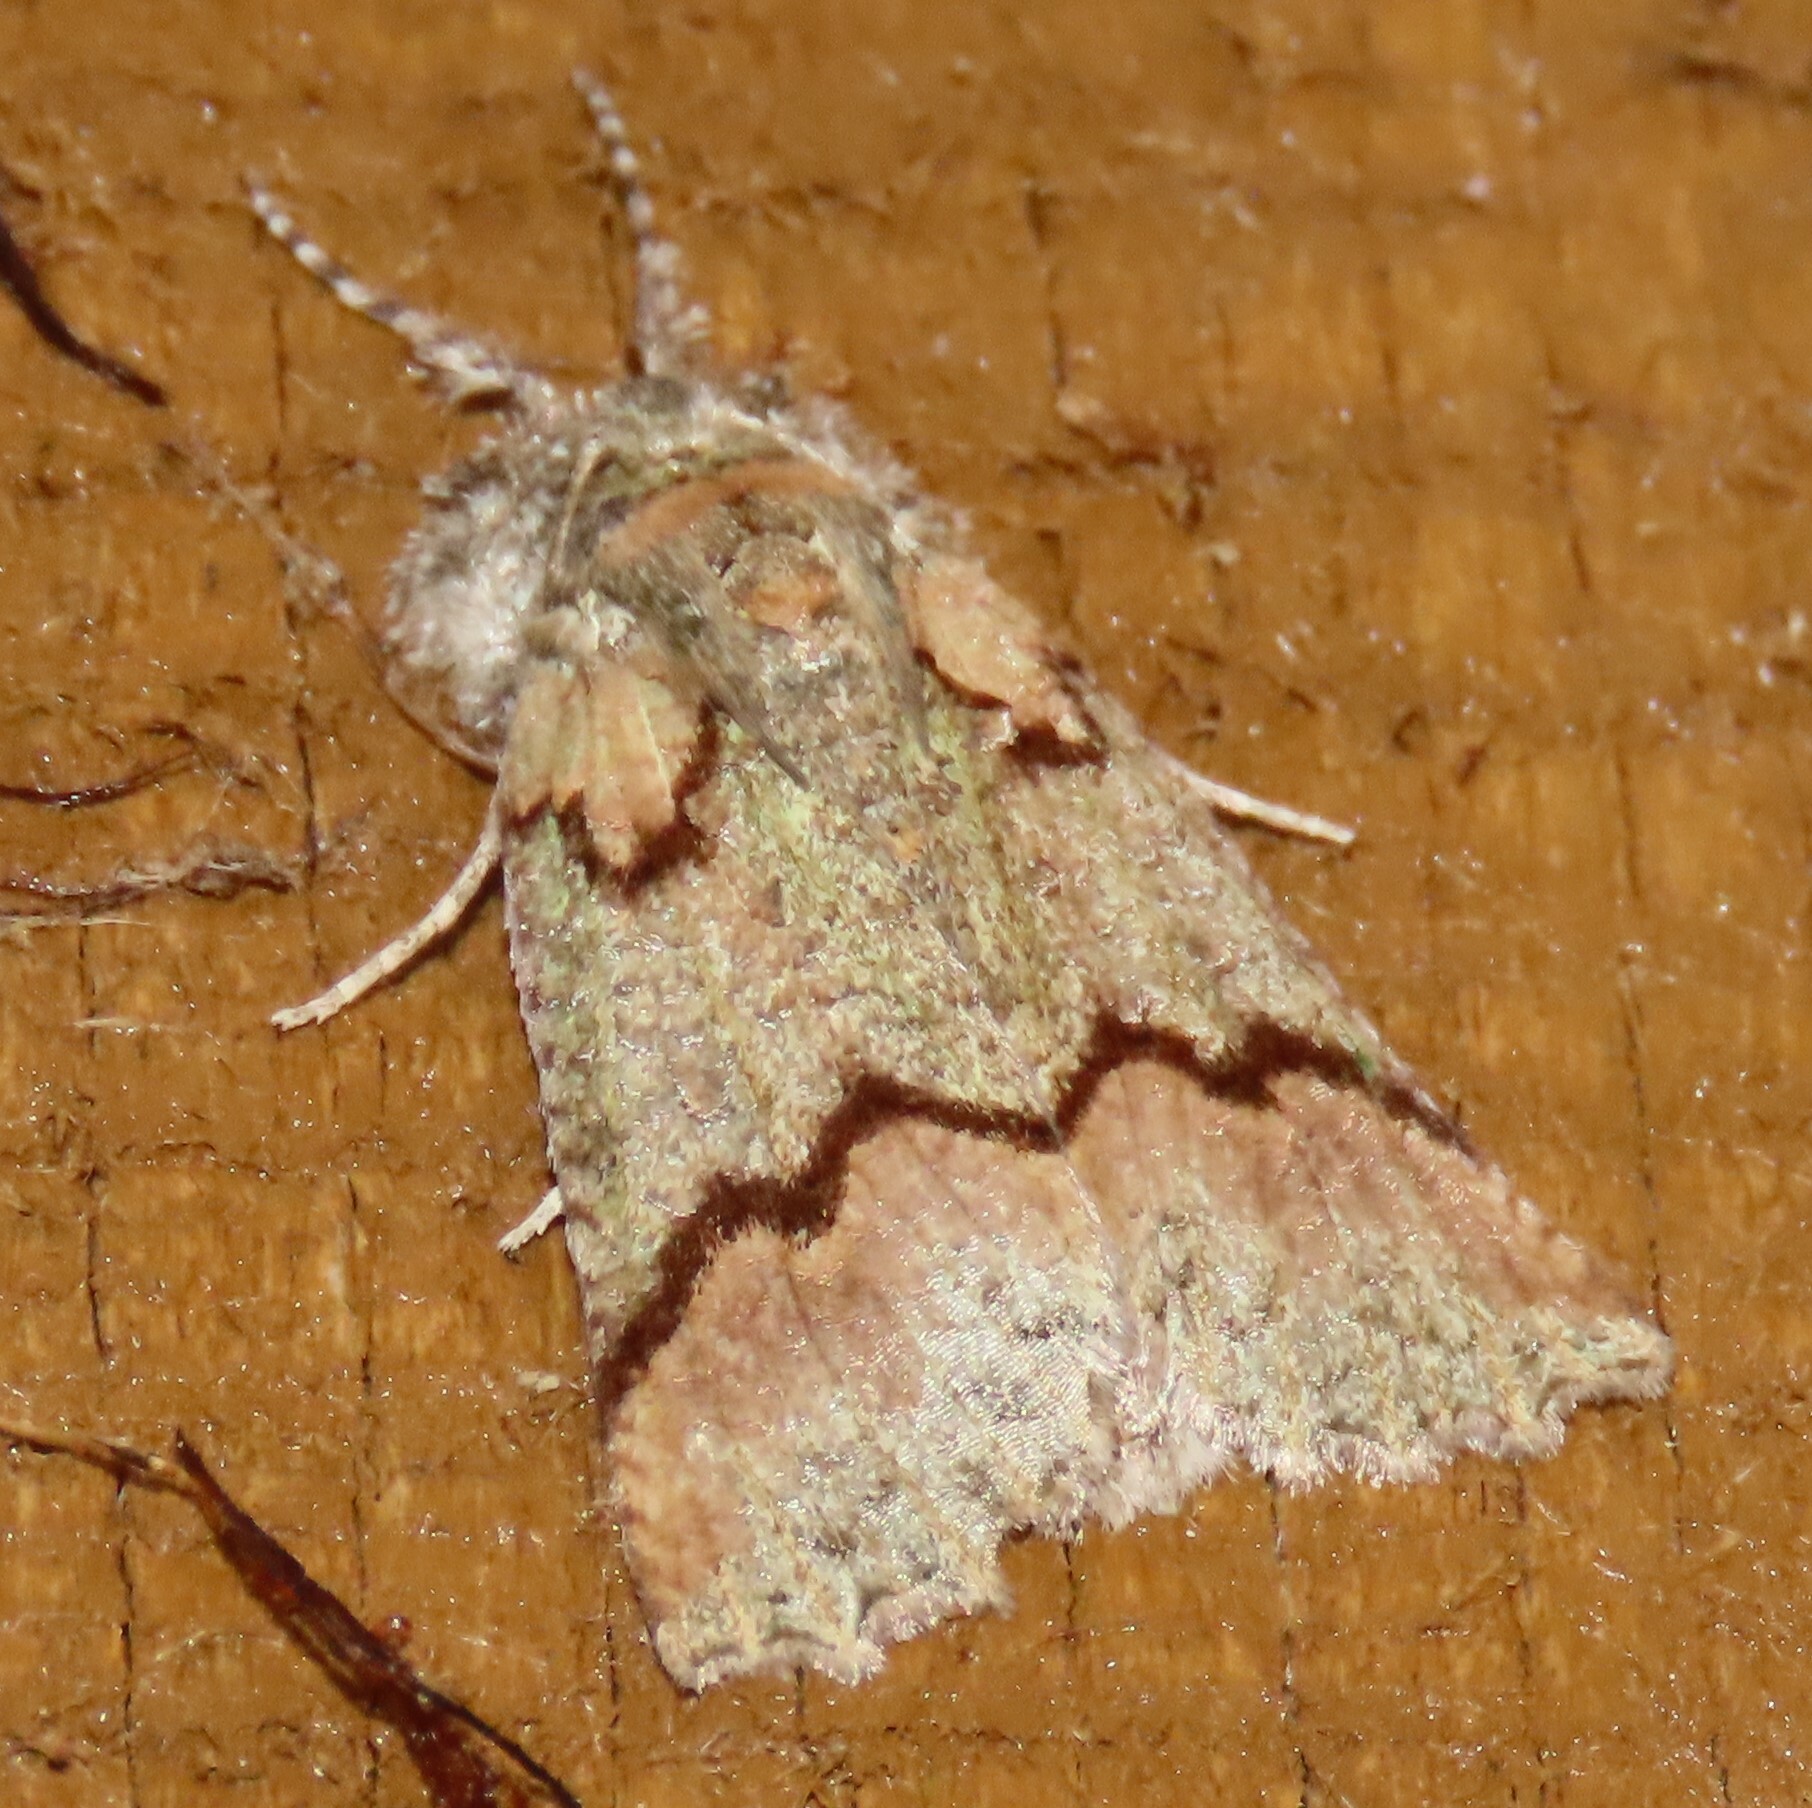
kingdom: Animalia
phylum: Arthropoda
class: Insecta
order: Lepidoptera
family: Geometridae
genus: Declana
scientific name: Declana floccosa
